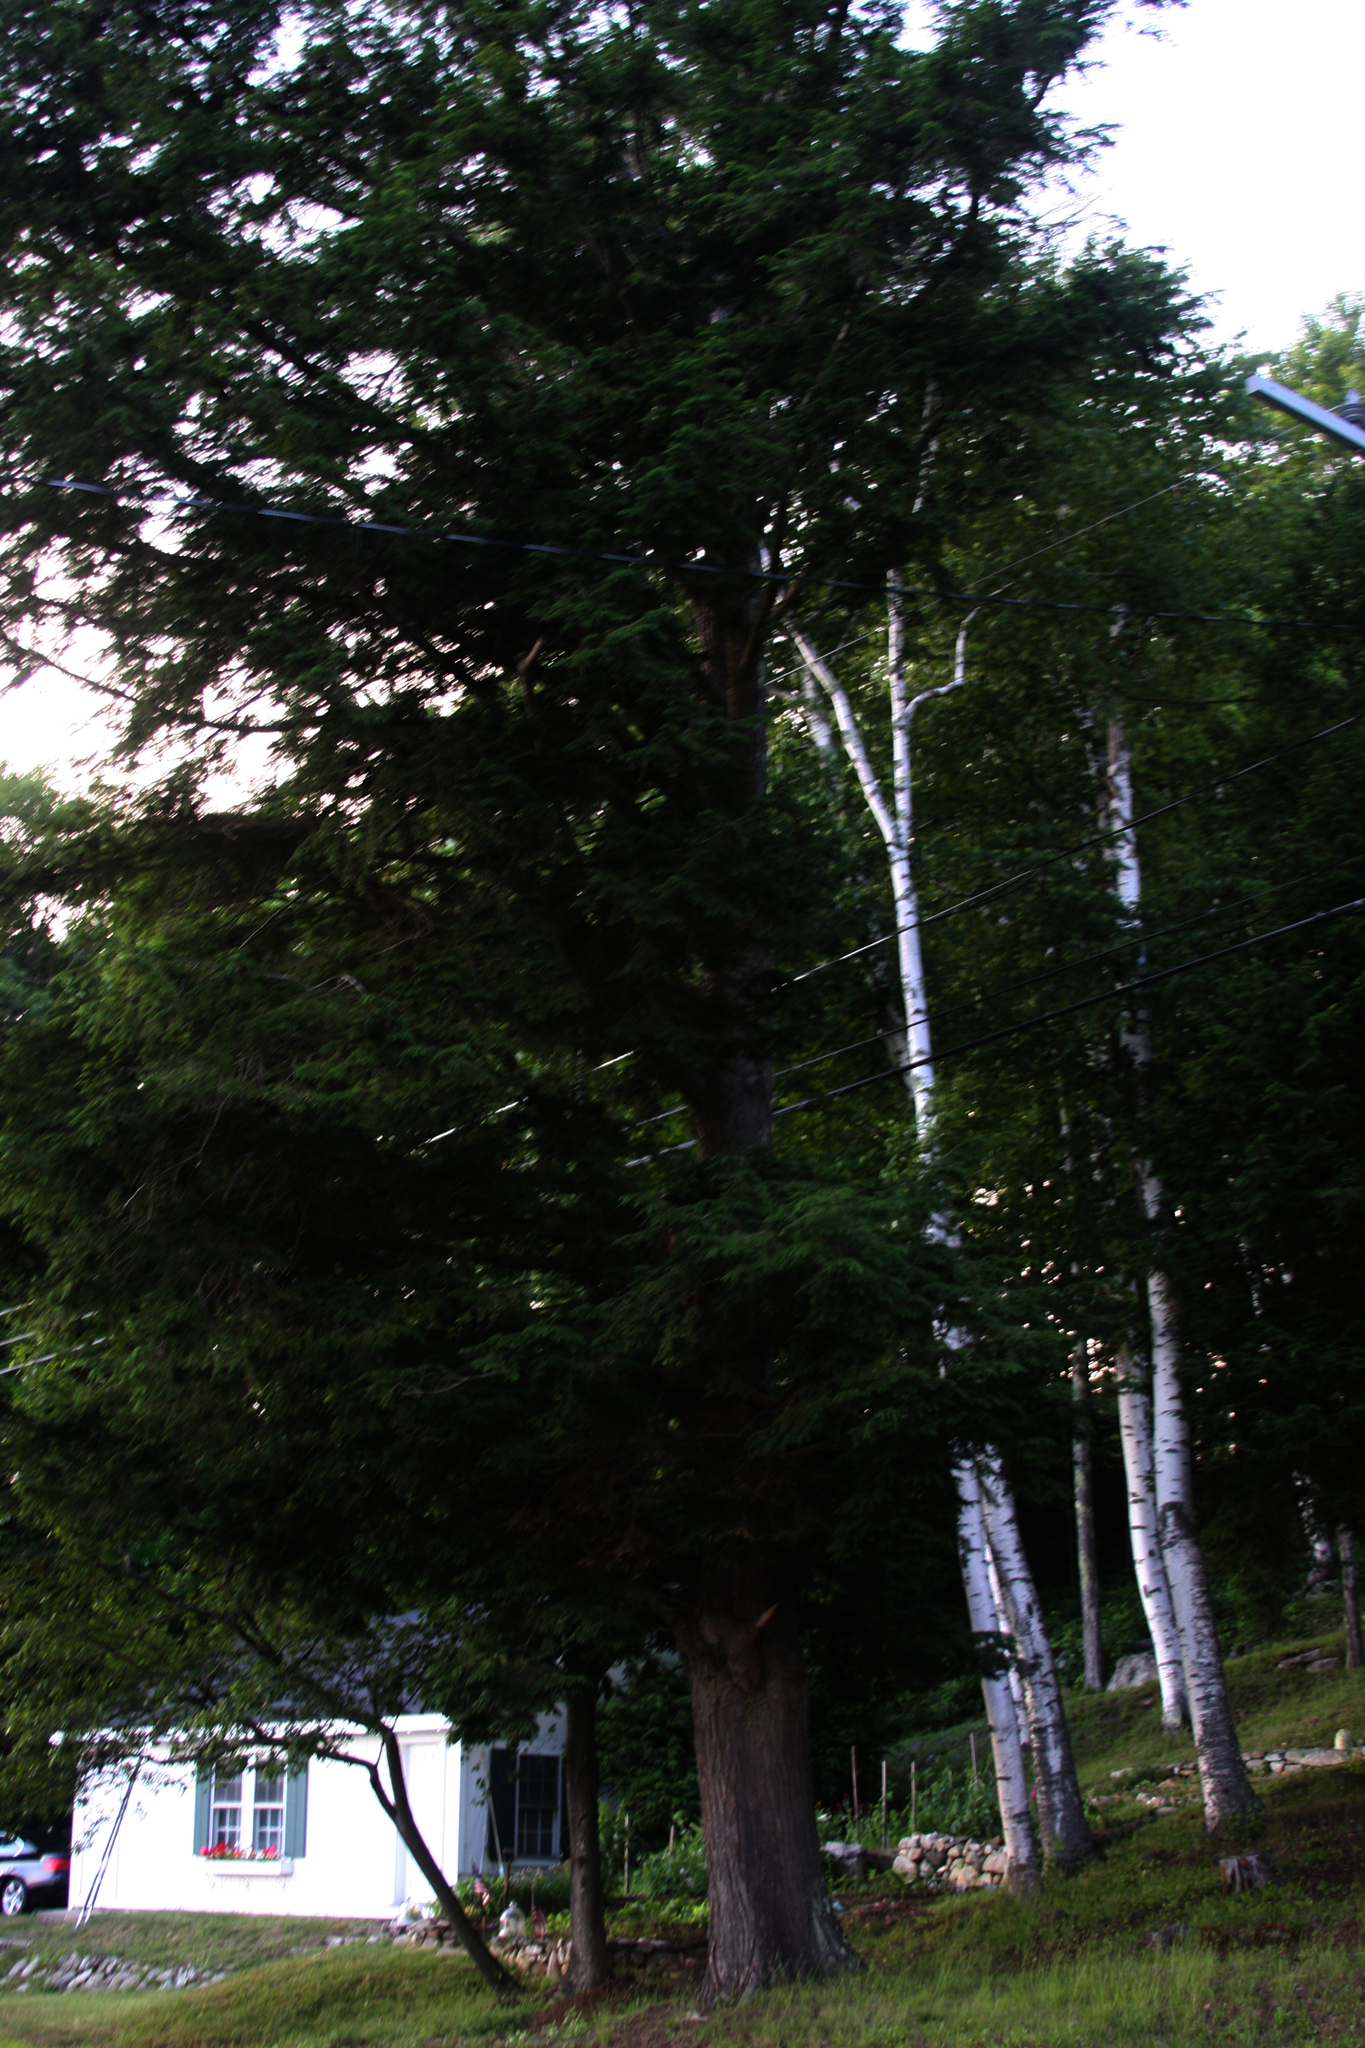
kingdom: Plantae
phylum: Tracheophyta
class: Pinopsida
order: Pinales
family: Pinaceae
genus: Tsuga
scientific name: Tsuga canadensis
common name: Eastern hemlock
